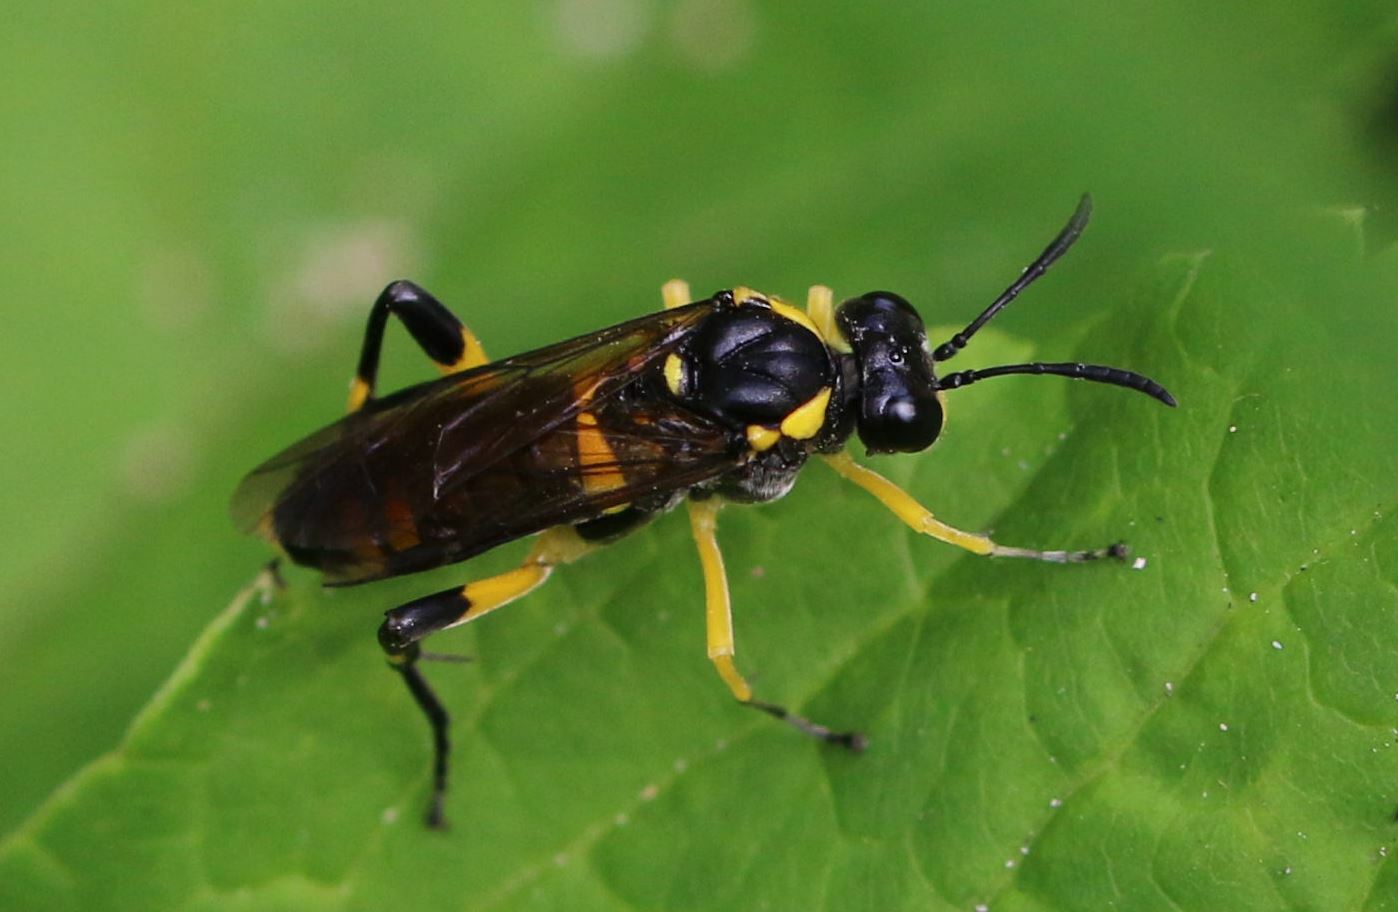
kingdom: Animalia
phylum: Arthropoda
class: Insecta
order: Hymenoptera
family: Tenthredinidae
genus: Macrophya
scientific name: Macrophya montana
